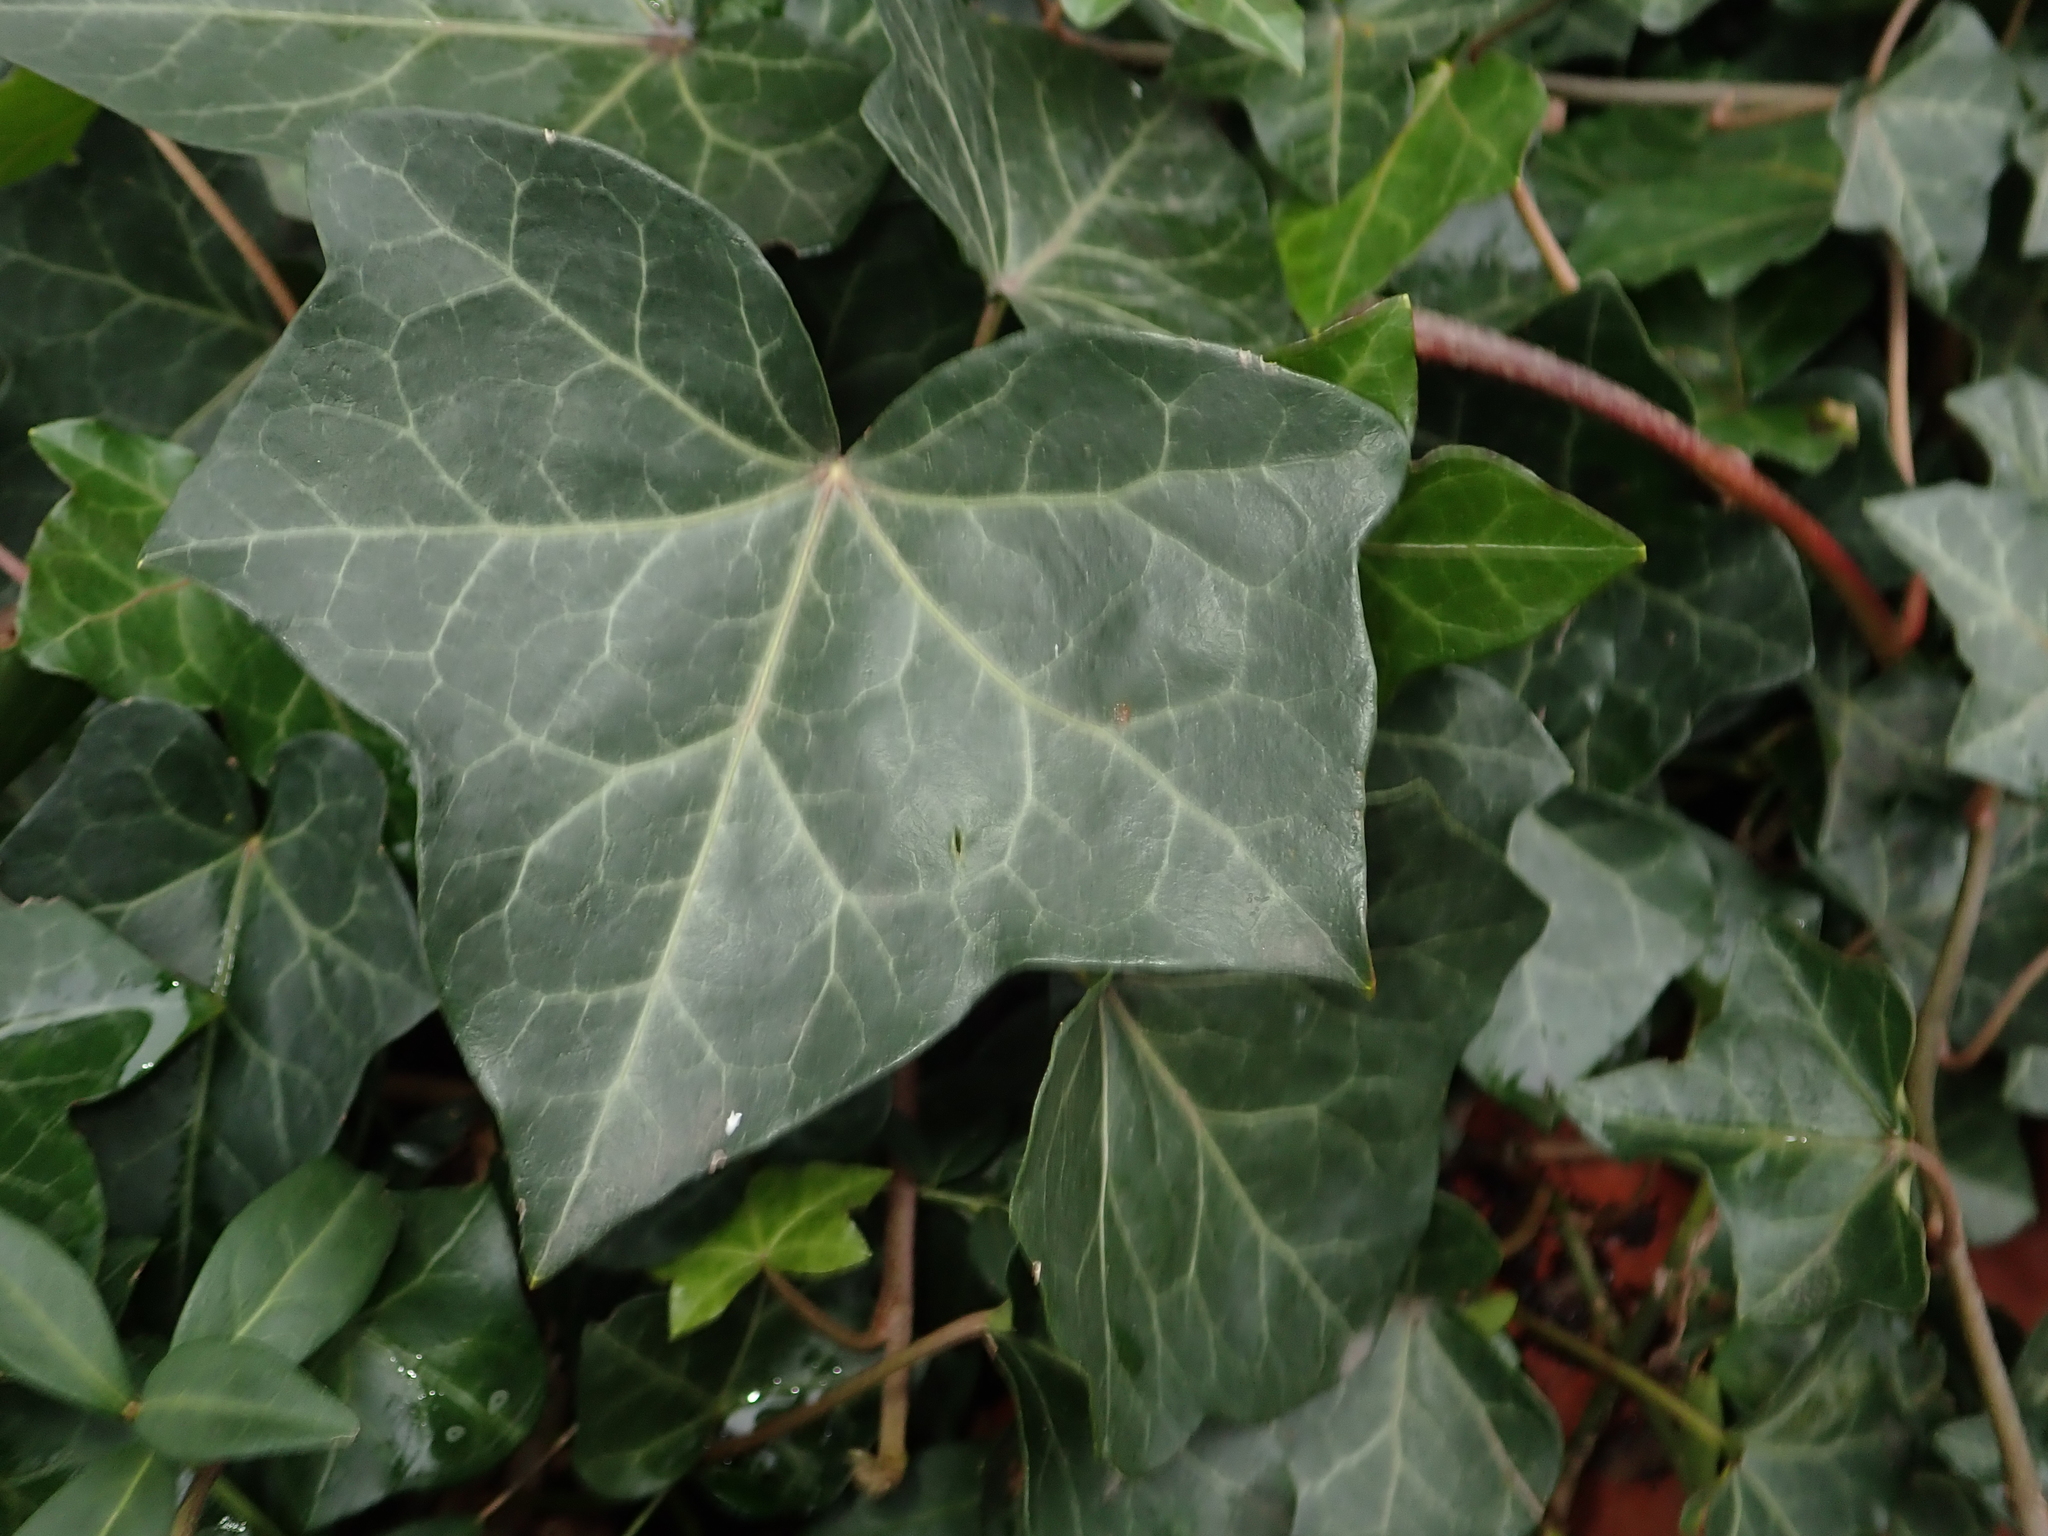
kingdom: Plantae
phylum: Tracheophyta
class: Magnoliopsida
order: Apiales
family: Araliaceae
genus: Hedera
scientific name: Hedera helix
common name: Ivy
